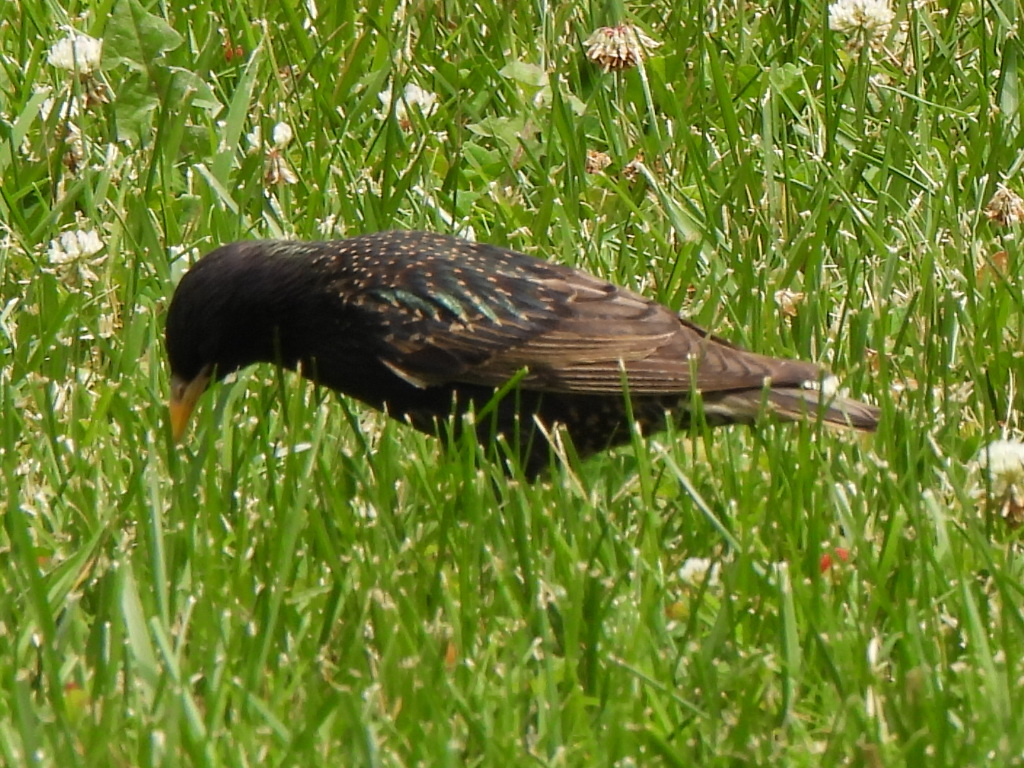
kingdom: Animalia
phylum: Chordata
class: Aves
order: Passeriformes
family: Sturnidae
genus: Sturnus
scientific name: Sturnus vulgaris
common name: Common starling
